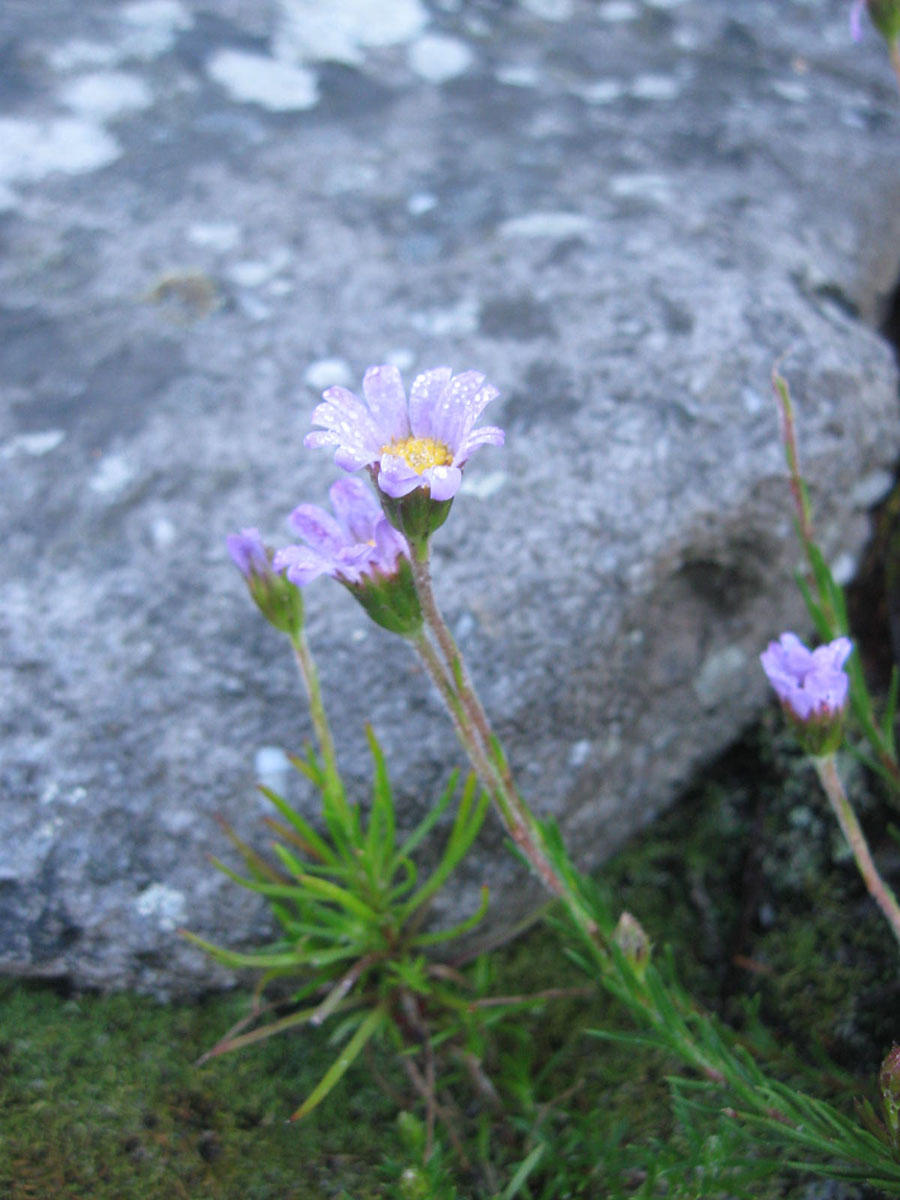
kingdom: Plantae
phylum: Tracheophyta
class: Magnoliopsida
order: Asterales
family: Asteraceae
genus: Zyrphelis
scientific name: Zyrphelis taxifolia
